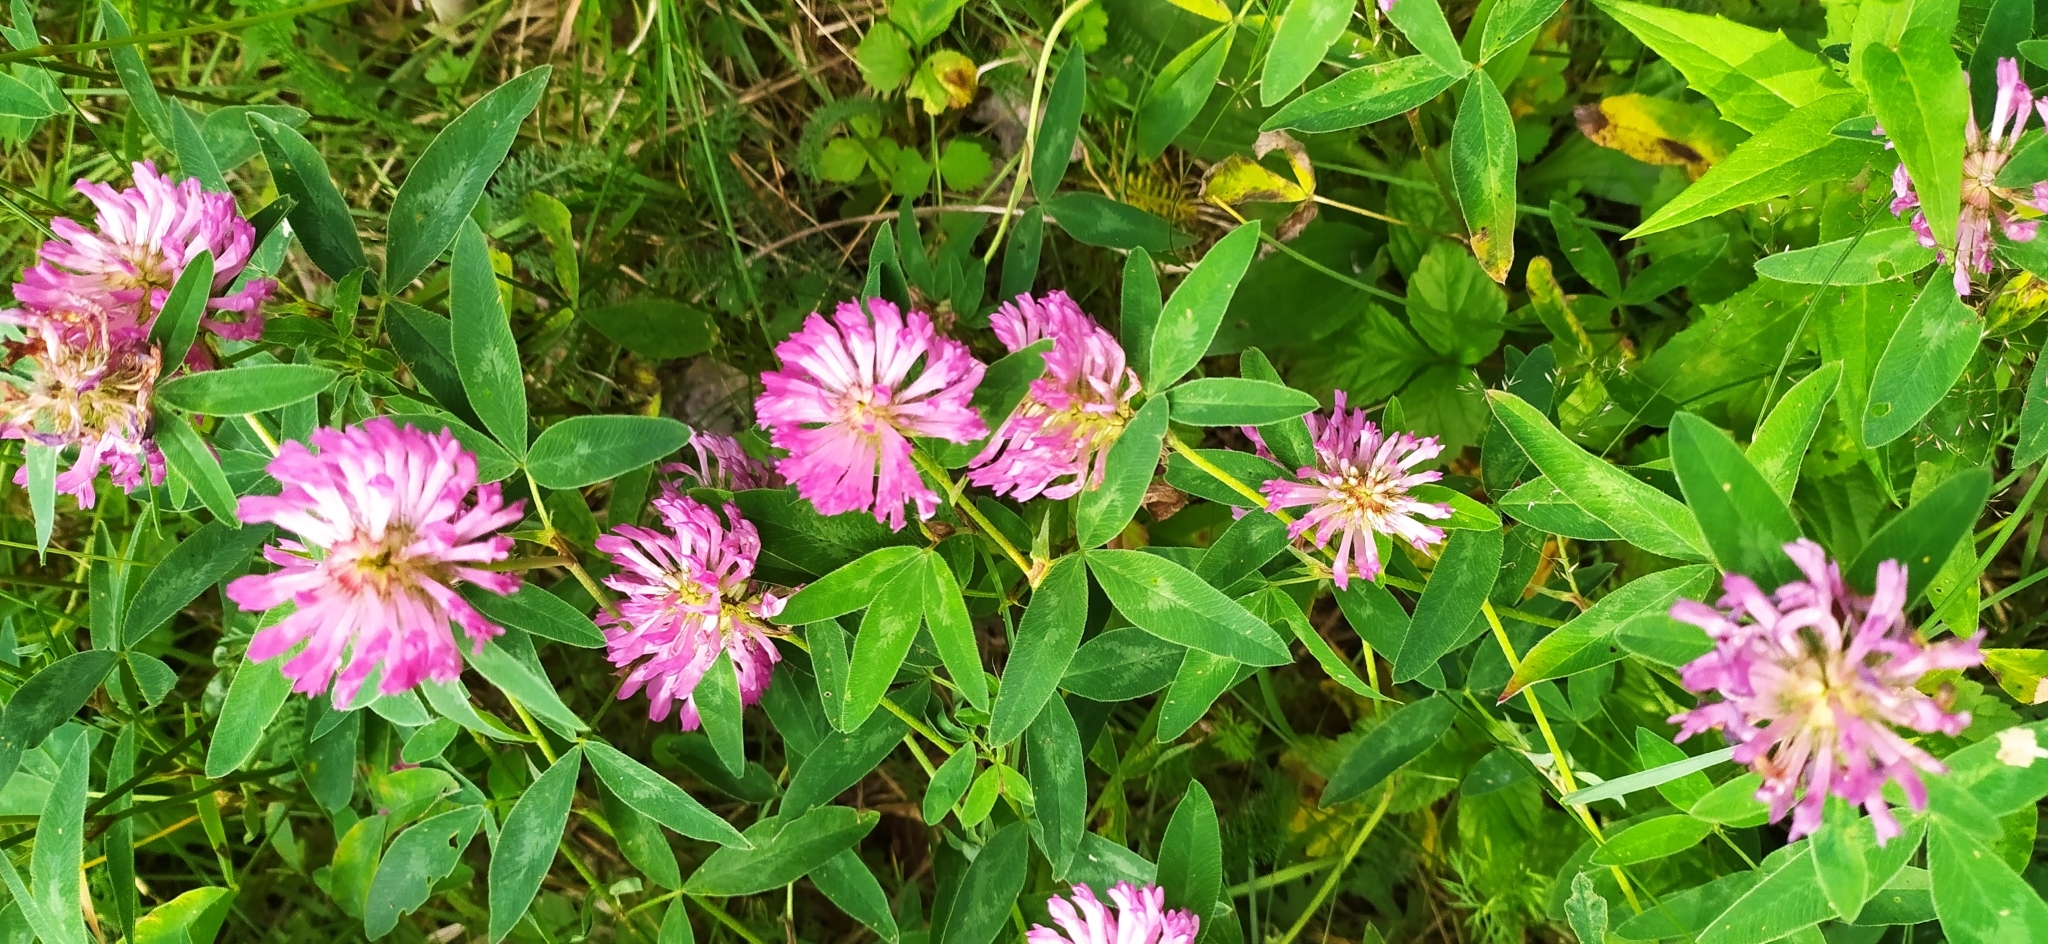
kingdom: Plantae
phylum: Tracheophyta
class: Magnoliopsida
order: Fabales
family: Fabaceae
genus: Trifolium
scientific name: Trifolium medium
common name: Zigzag clover
